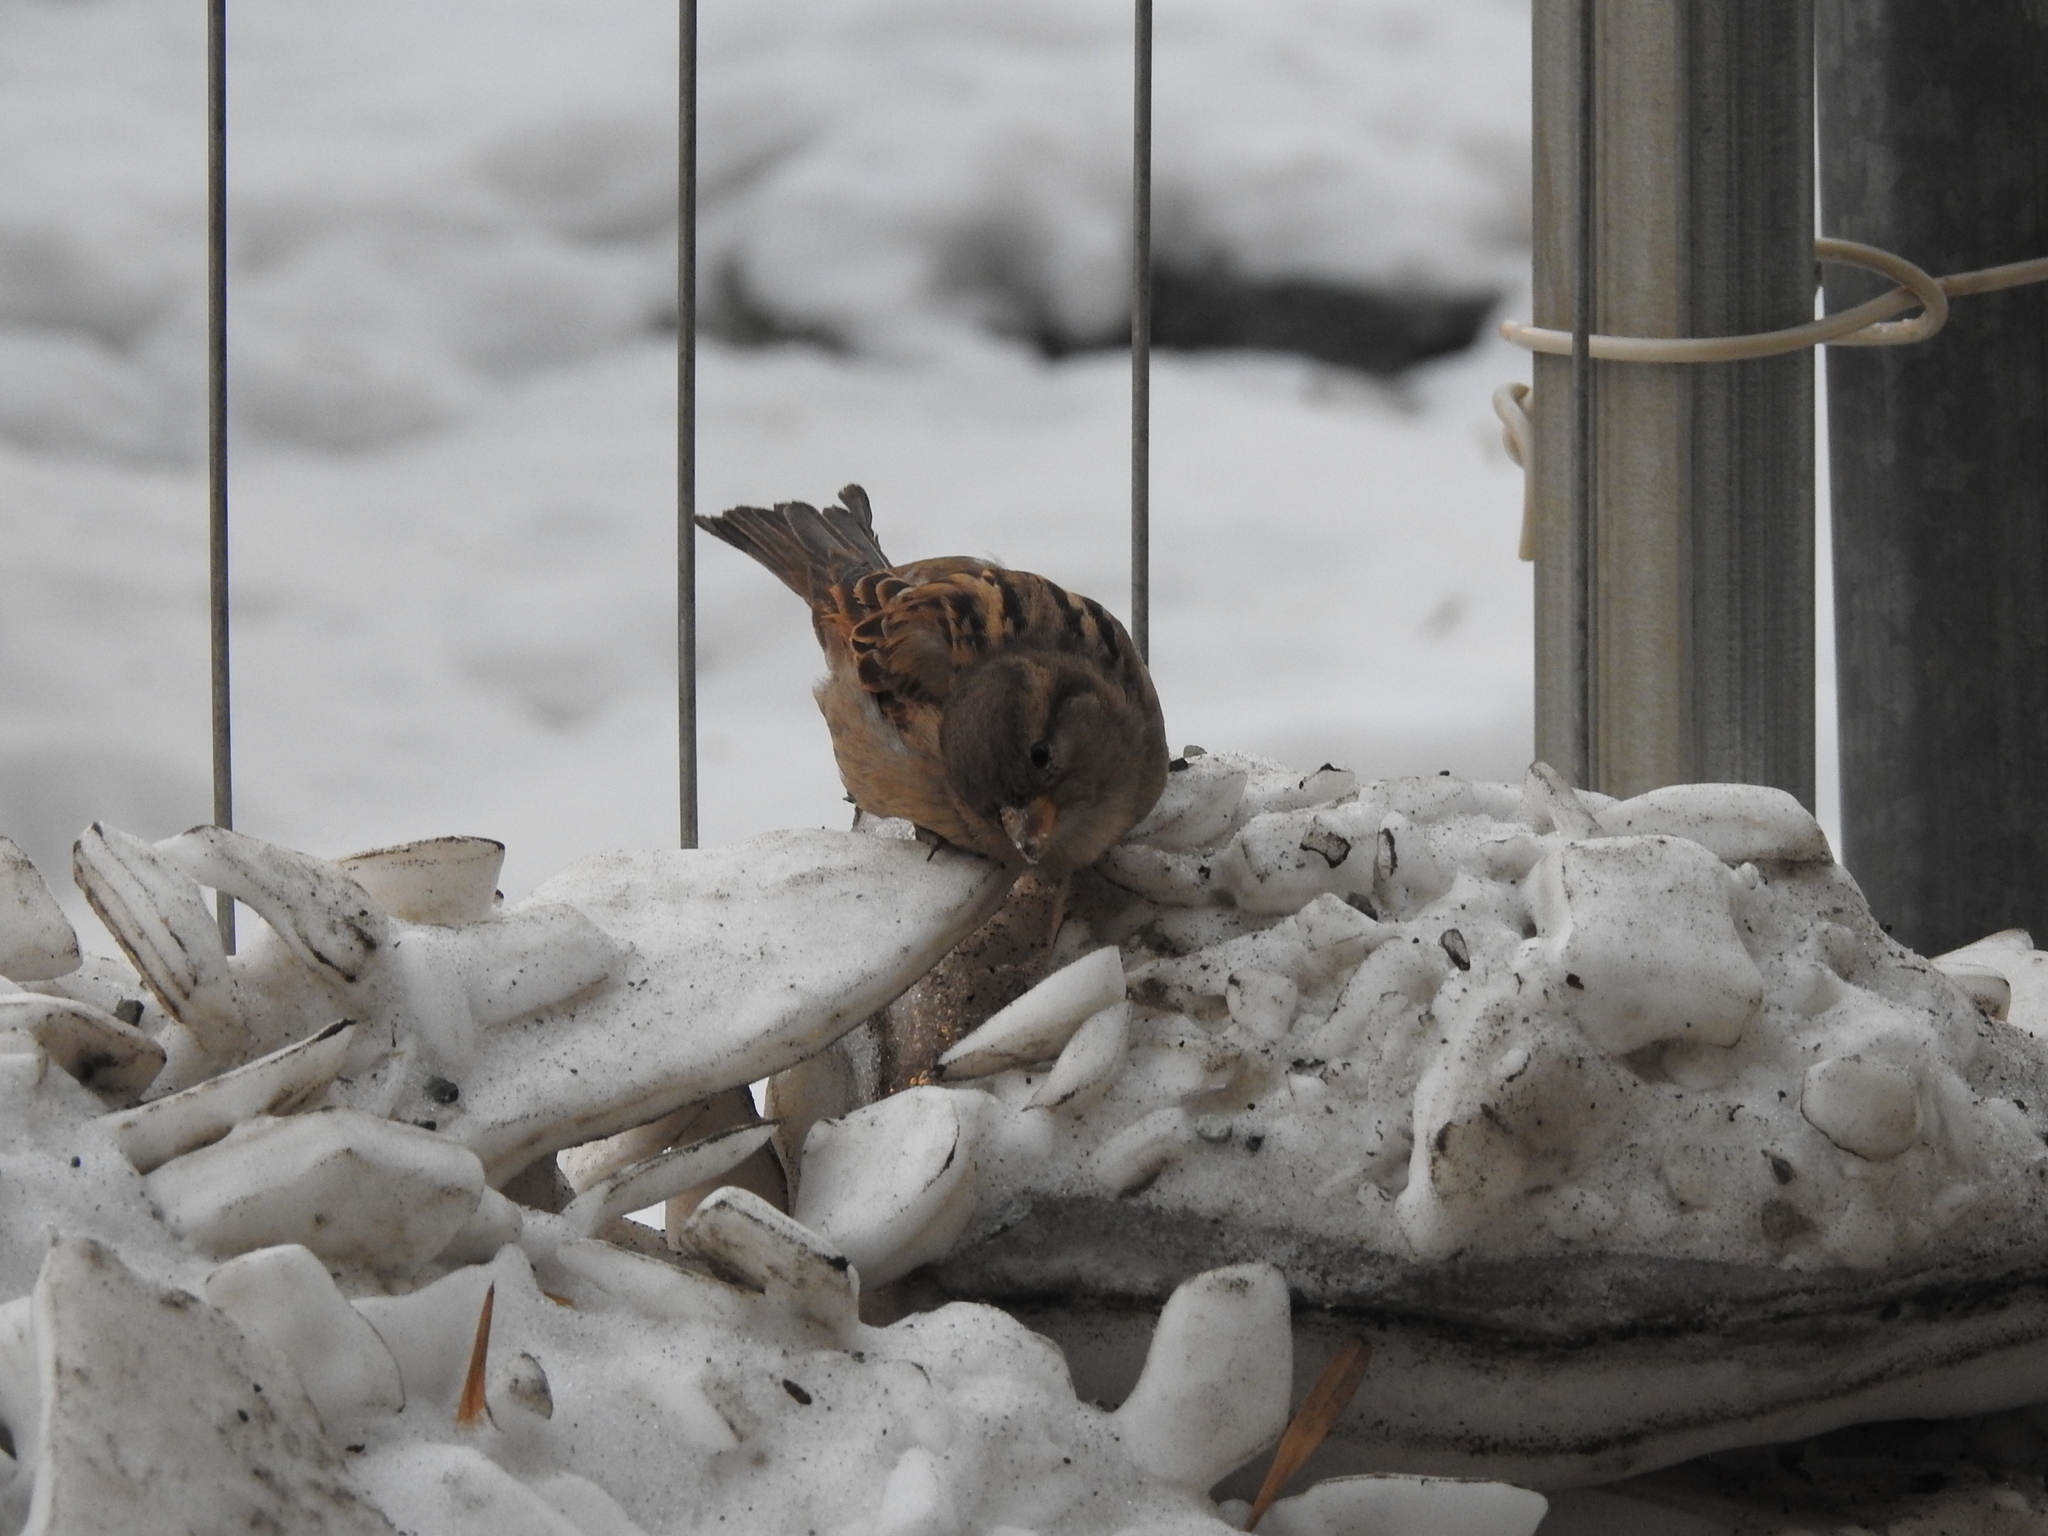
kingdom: Animalia
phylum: Chordata
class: Aves
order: Passeriformes
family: Passeridae
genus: Passer
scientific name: Passer domesticus
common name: House sparrow
